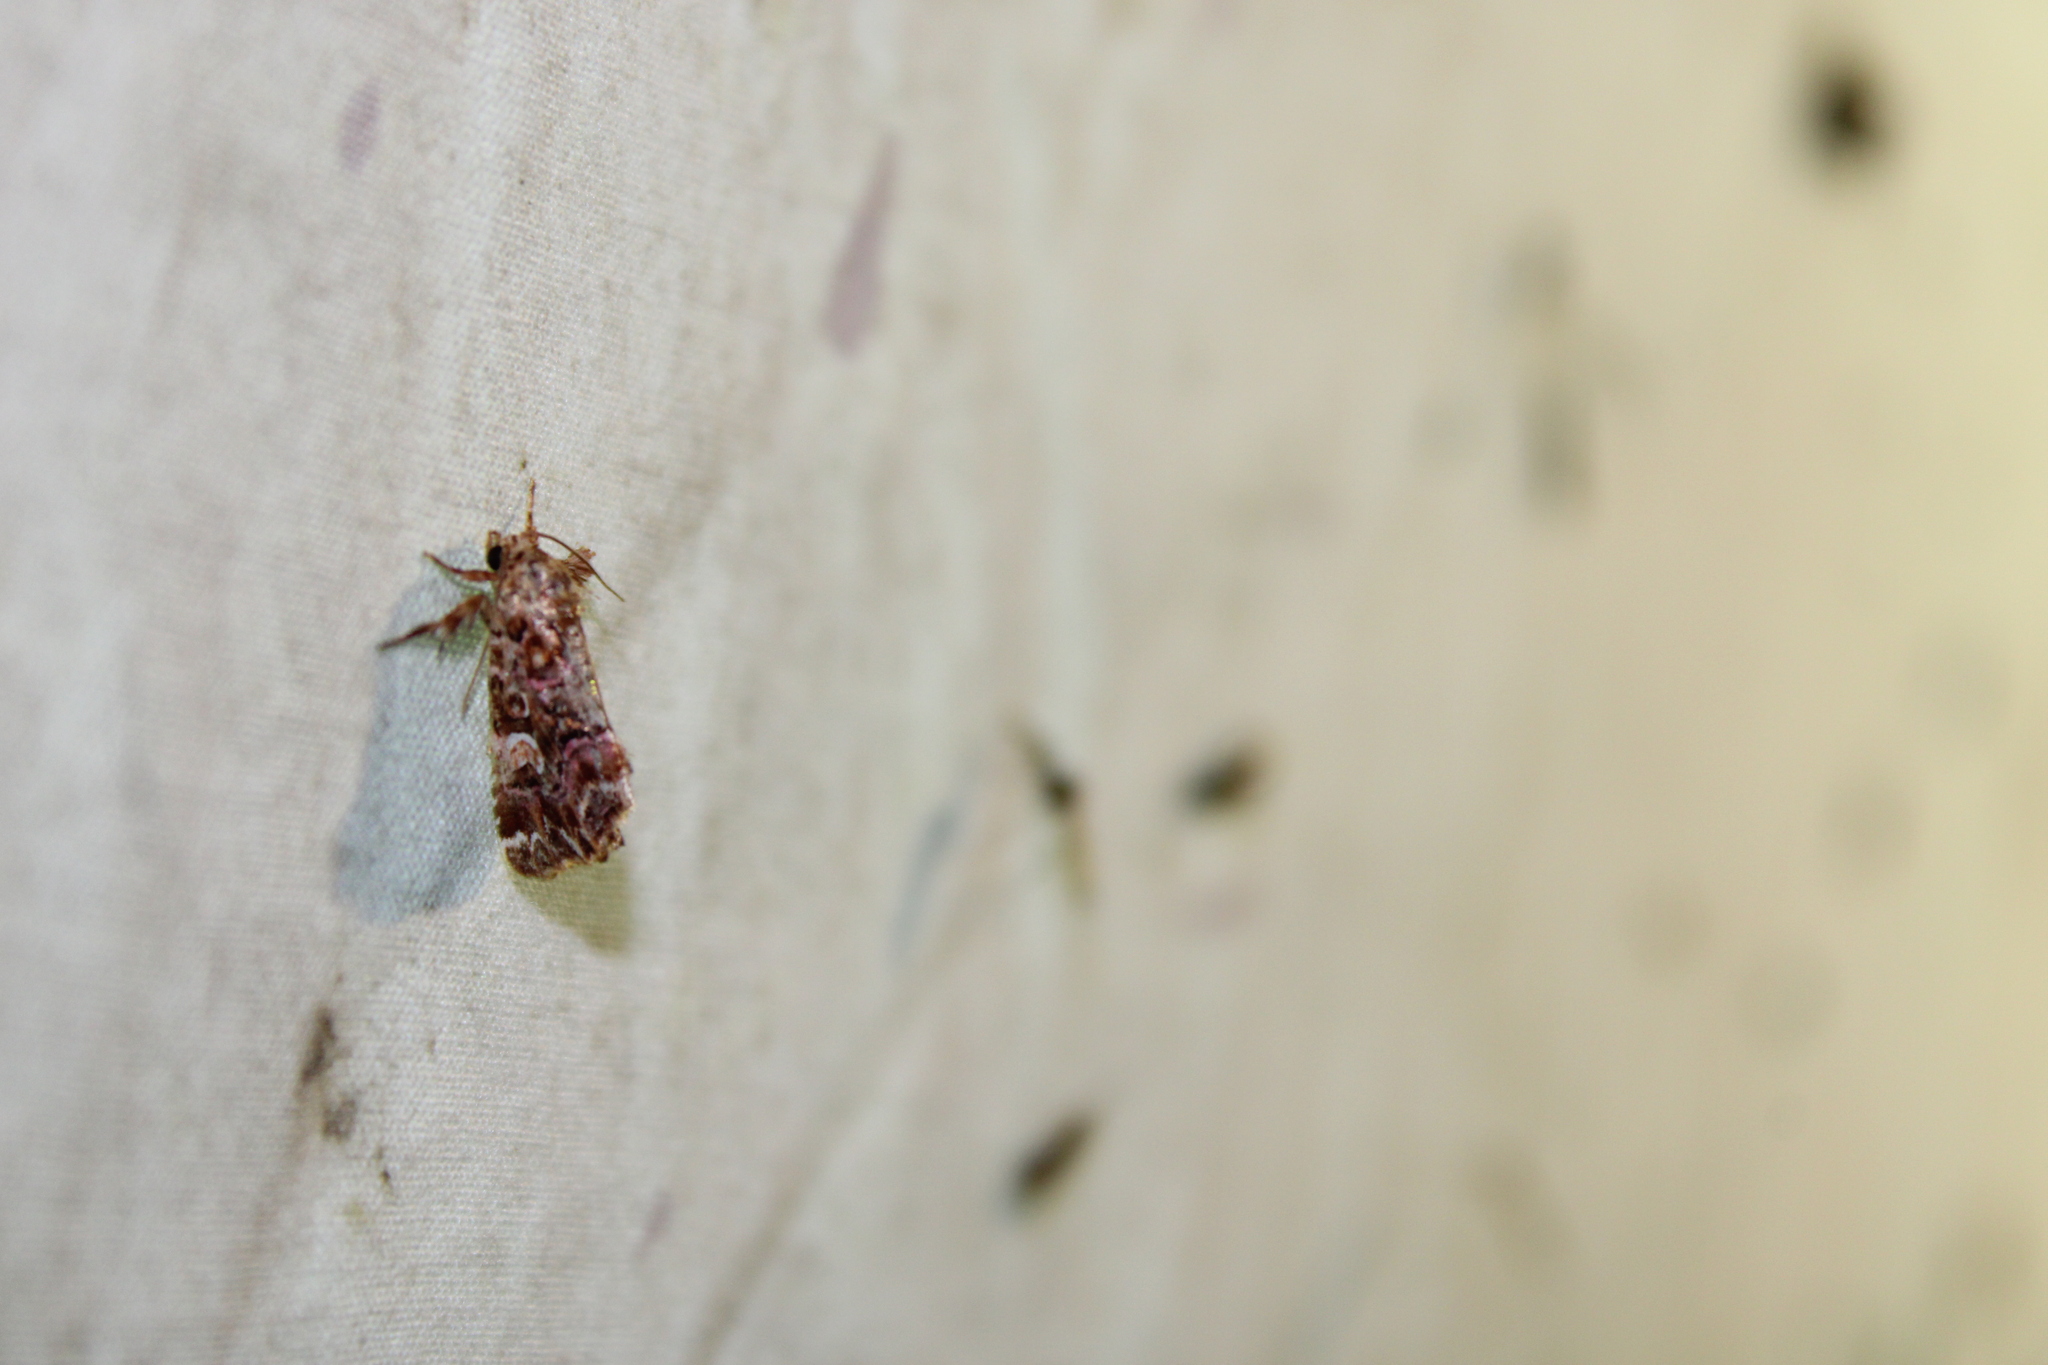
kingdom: Animalia
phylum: Arthropoda
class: Insecta
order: Lepidoptera
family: Noctuidae
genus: Callopistria
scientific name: Callopistria mollissima
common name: Pink-shaded fern moth
